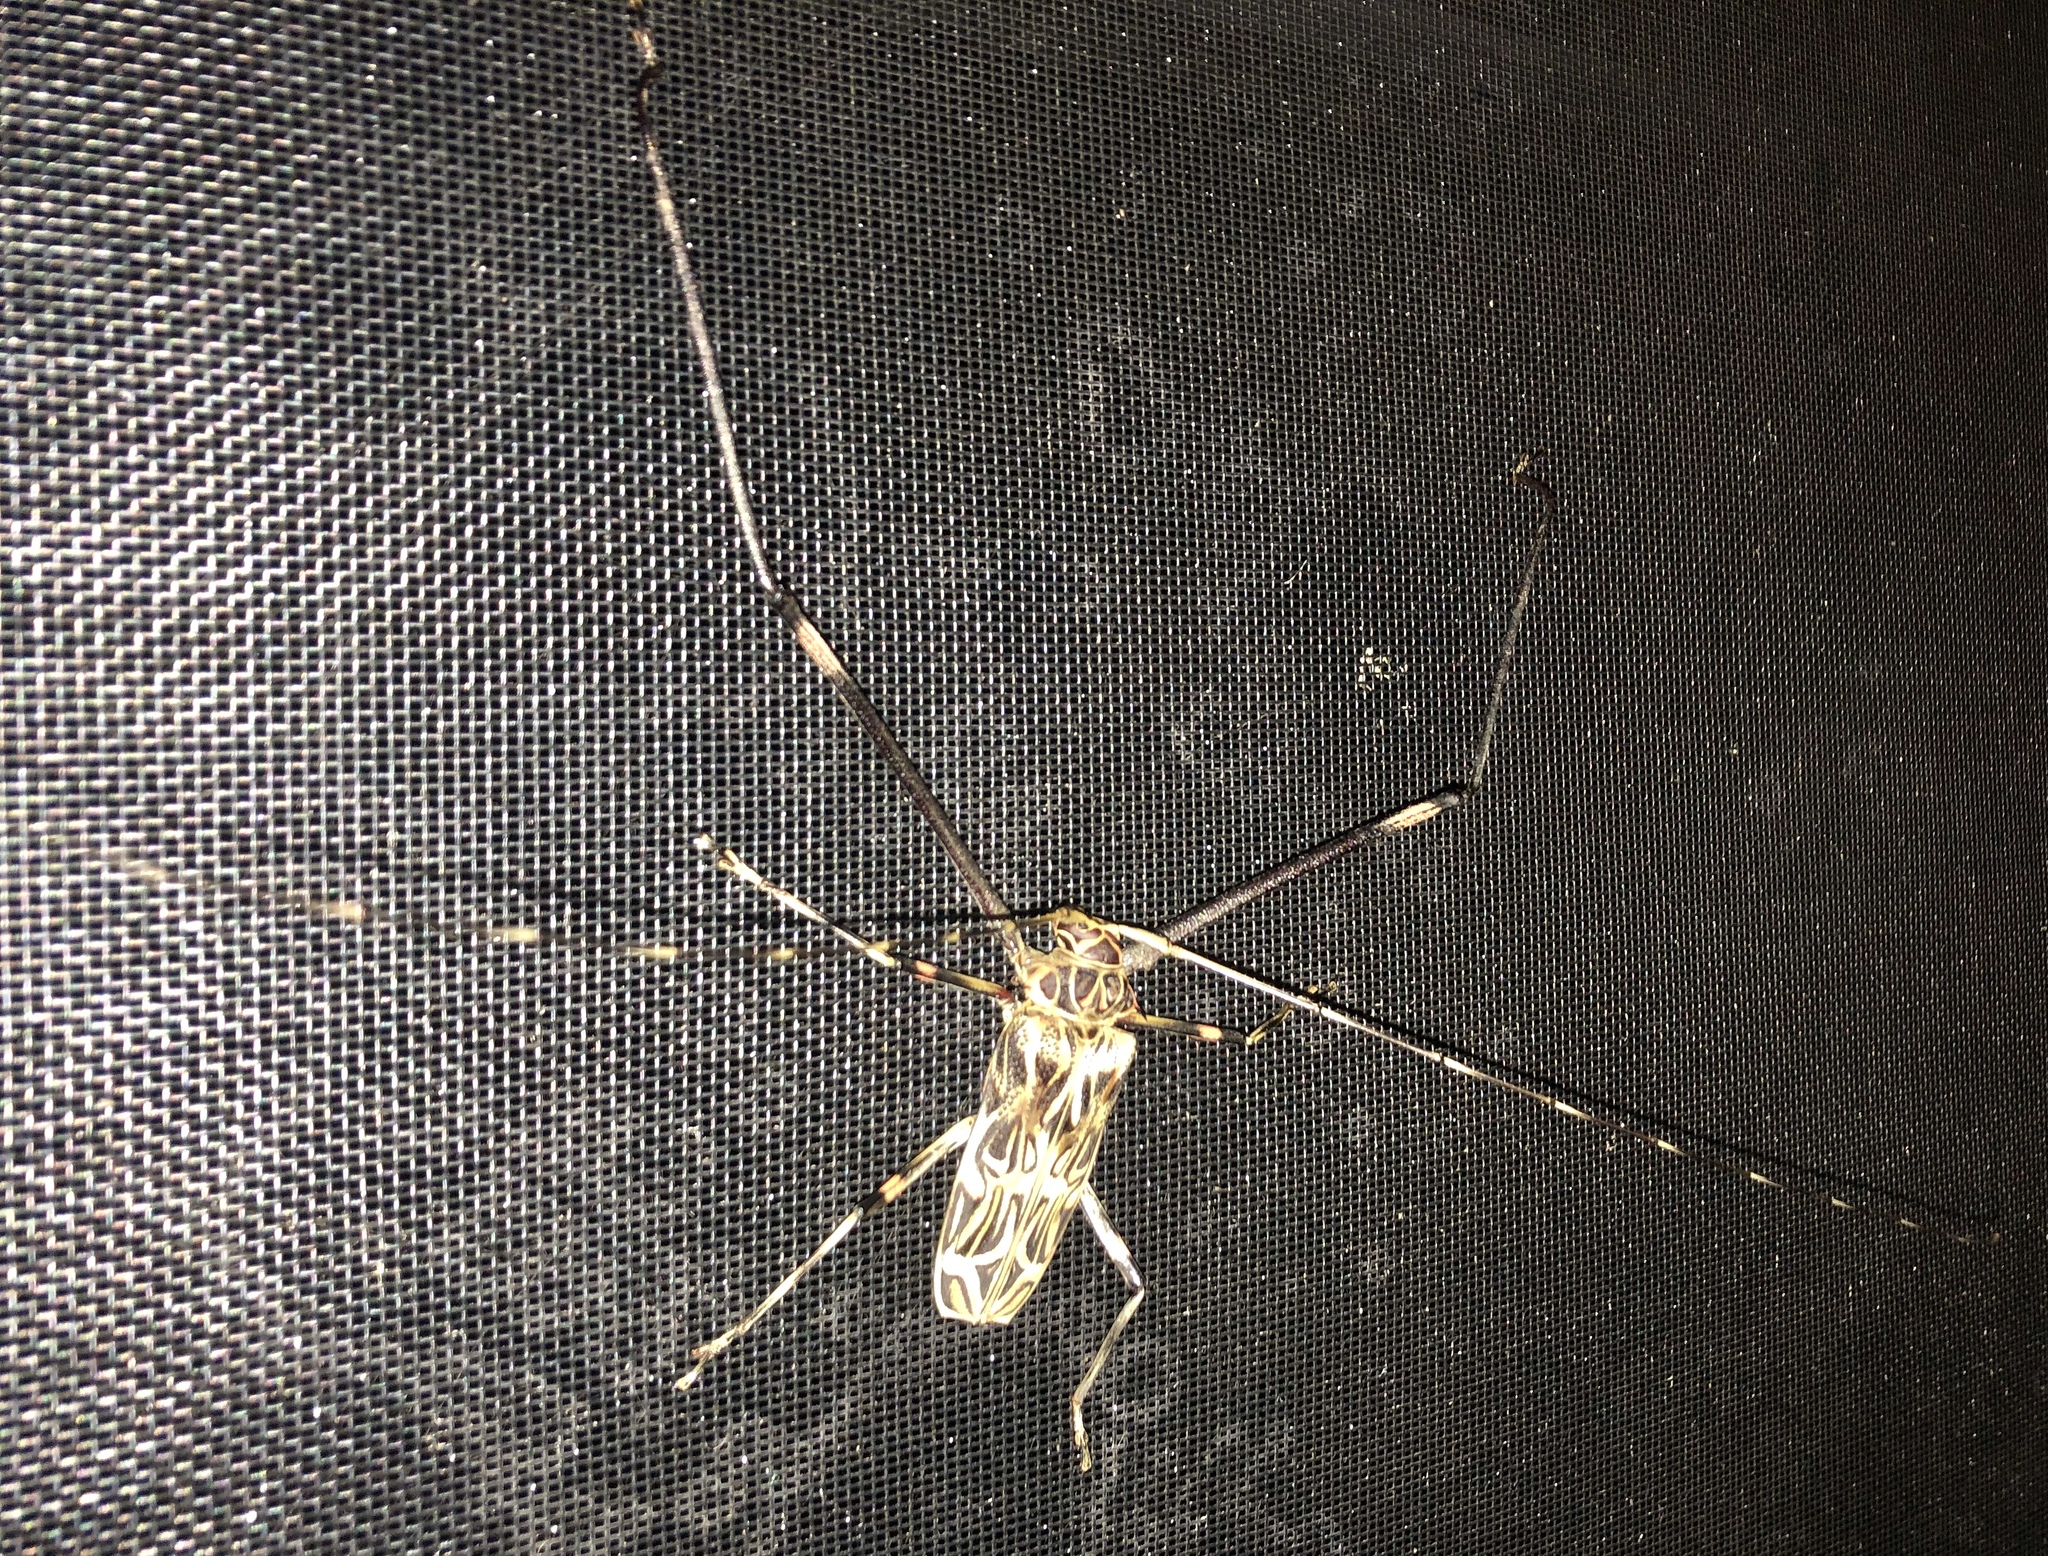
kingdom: Animalia
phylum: Arthropoda
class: Insecta
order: Coleoptera
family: Cerambycidae
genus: Acrocinus
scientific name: Acrocinus longimanus
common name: Arlequin
